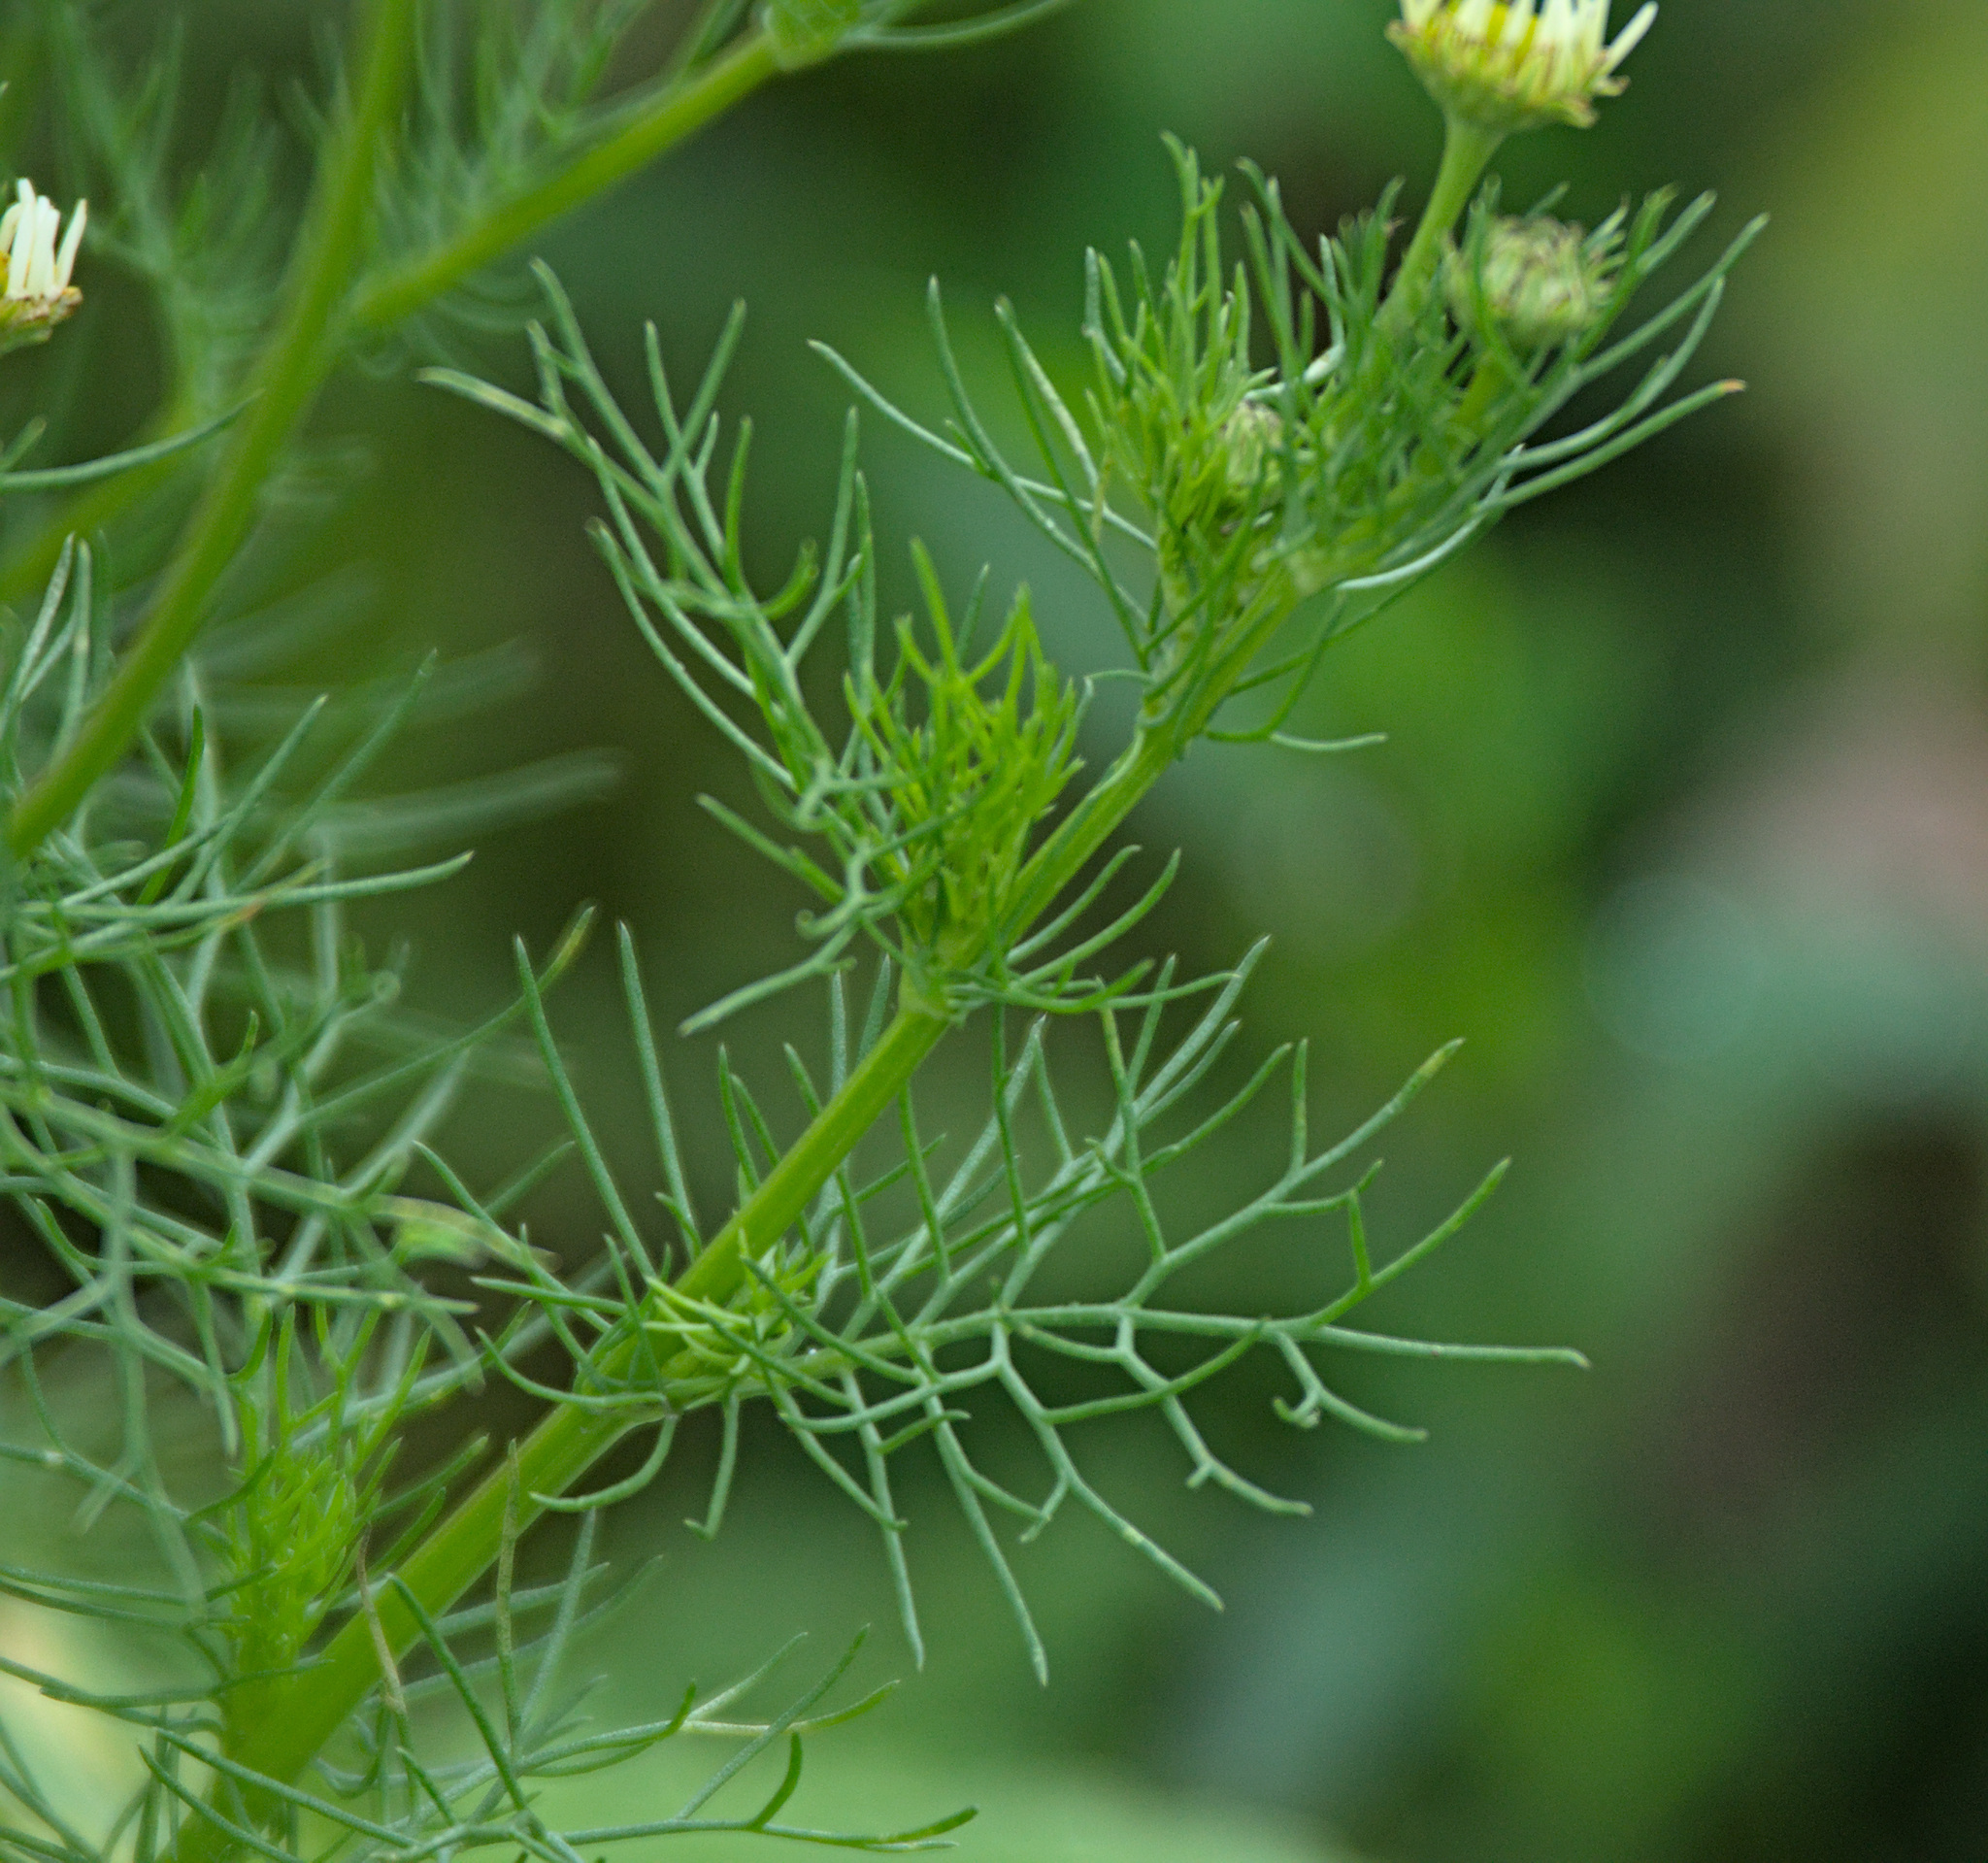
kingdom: Plantae
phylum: Tracheophyta
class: Magnoliopsida
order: Asterales
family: Asteraceae
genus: Tripleurospermum
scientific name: Tripleurospermum inodorum
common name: Scentless mayweed
